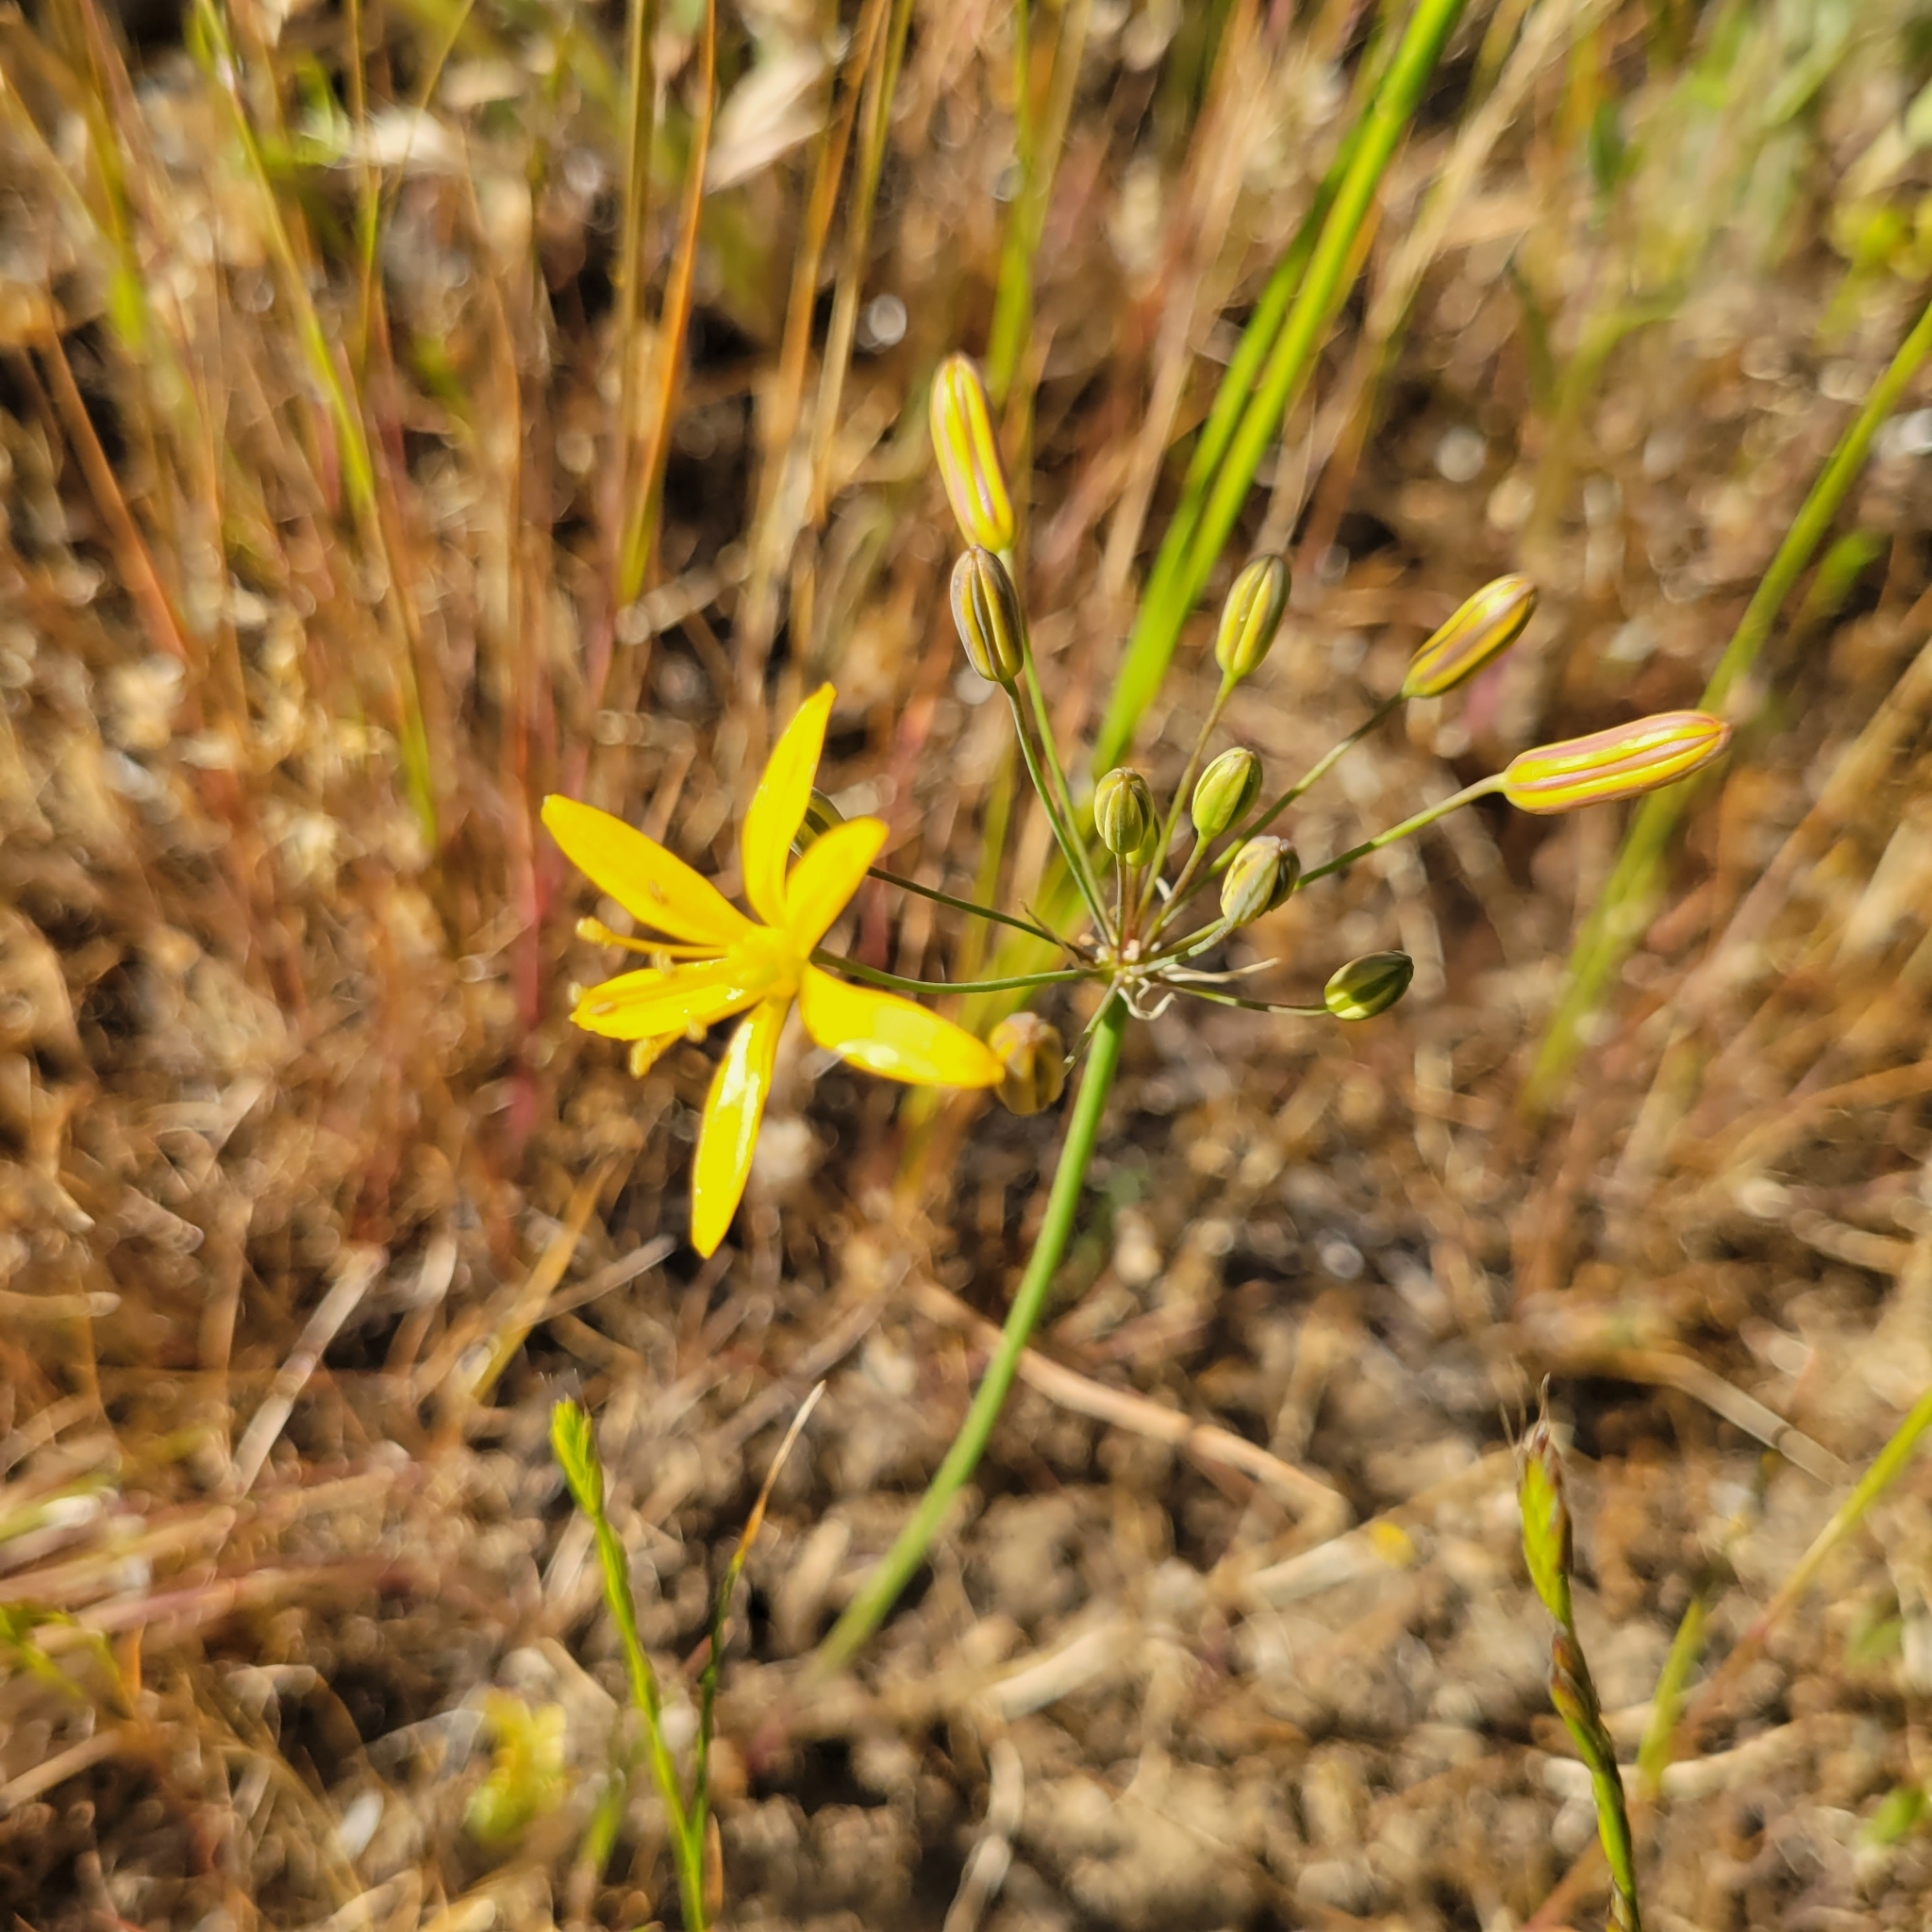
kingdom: Plantae
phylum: Tracheophyta
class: Liliopsida
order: Asparagales
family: Asparagaceae
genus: Bloomeria
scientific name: Bloomeria crocea
